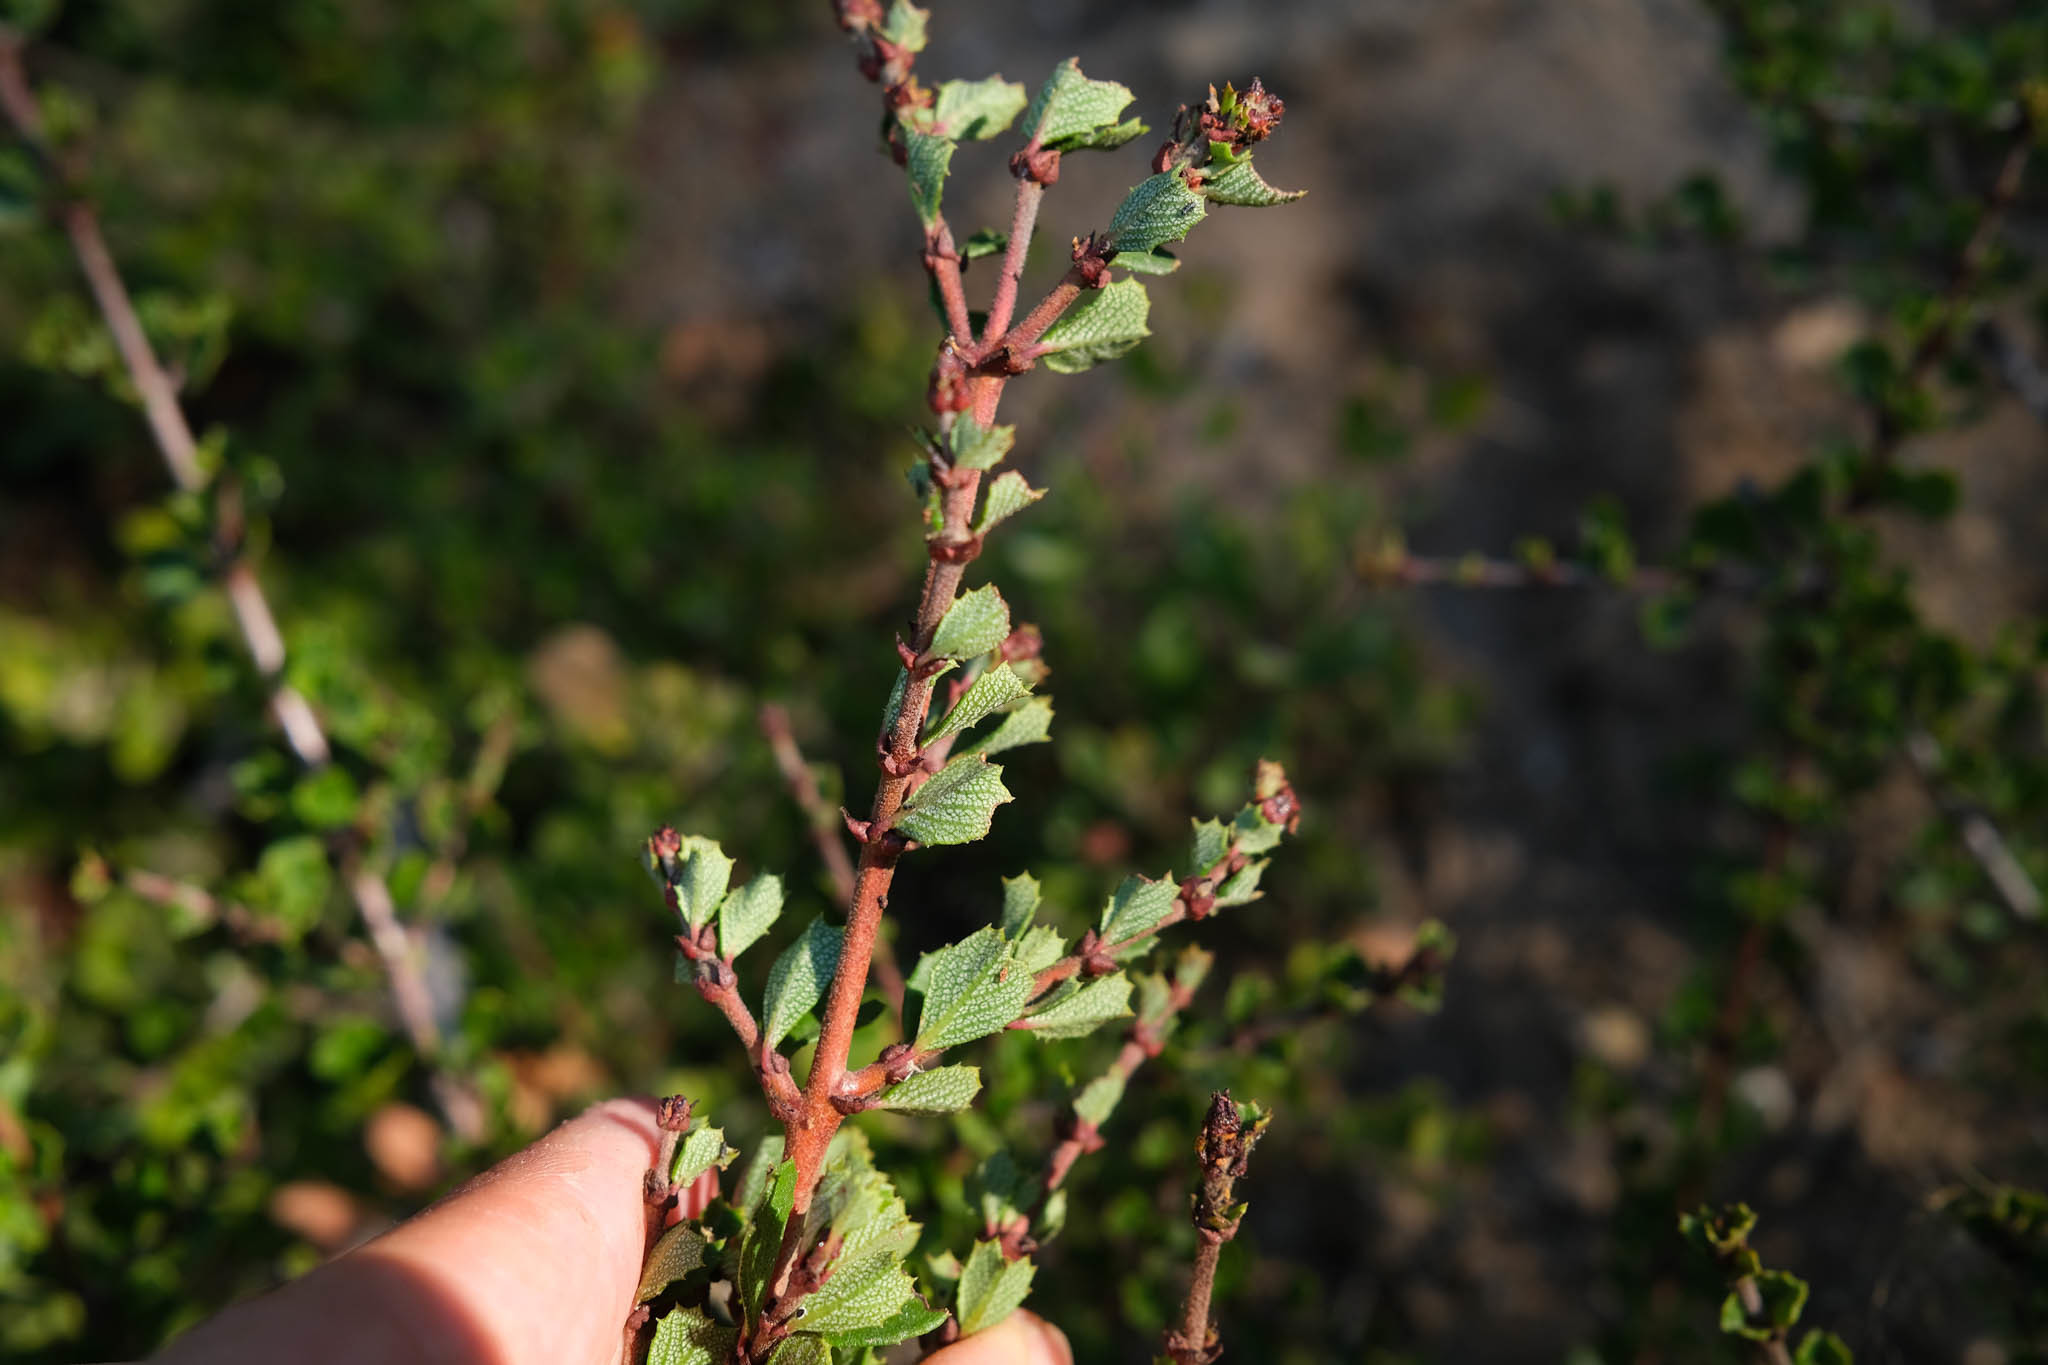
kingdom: Plantae
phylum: Tracheophyta
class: Magnoliopsida
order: Rosales
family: Rhamnaceae
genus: Ceanothus
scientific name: Ceanothus cuneatus
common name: Cuneate ceanothus
